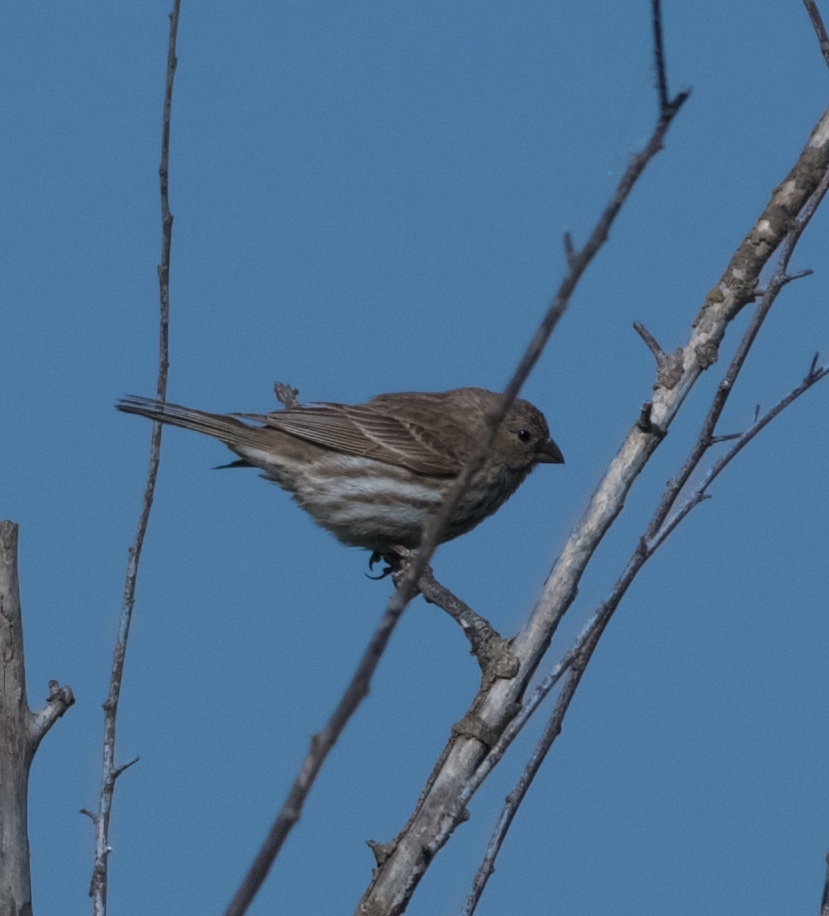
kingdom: Animalia
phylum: Chordata
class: Aves
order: Passeriformes
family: Fringillidae
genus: Haemorhous
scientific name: Haemorhous mexicanus
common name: House finch
